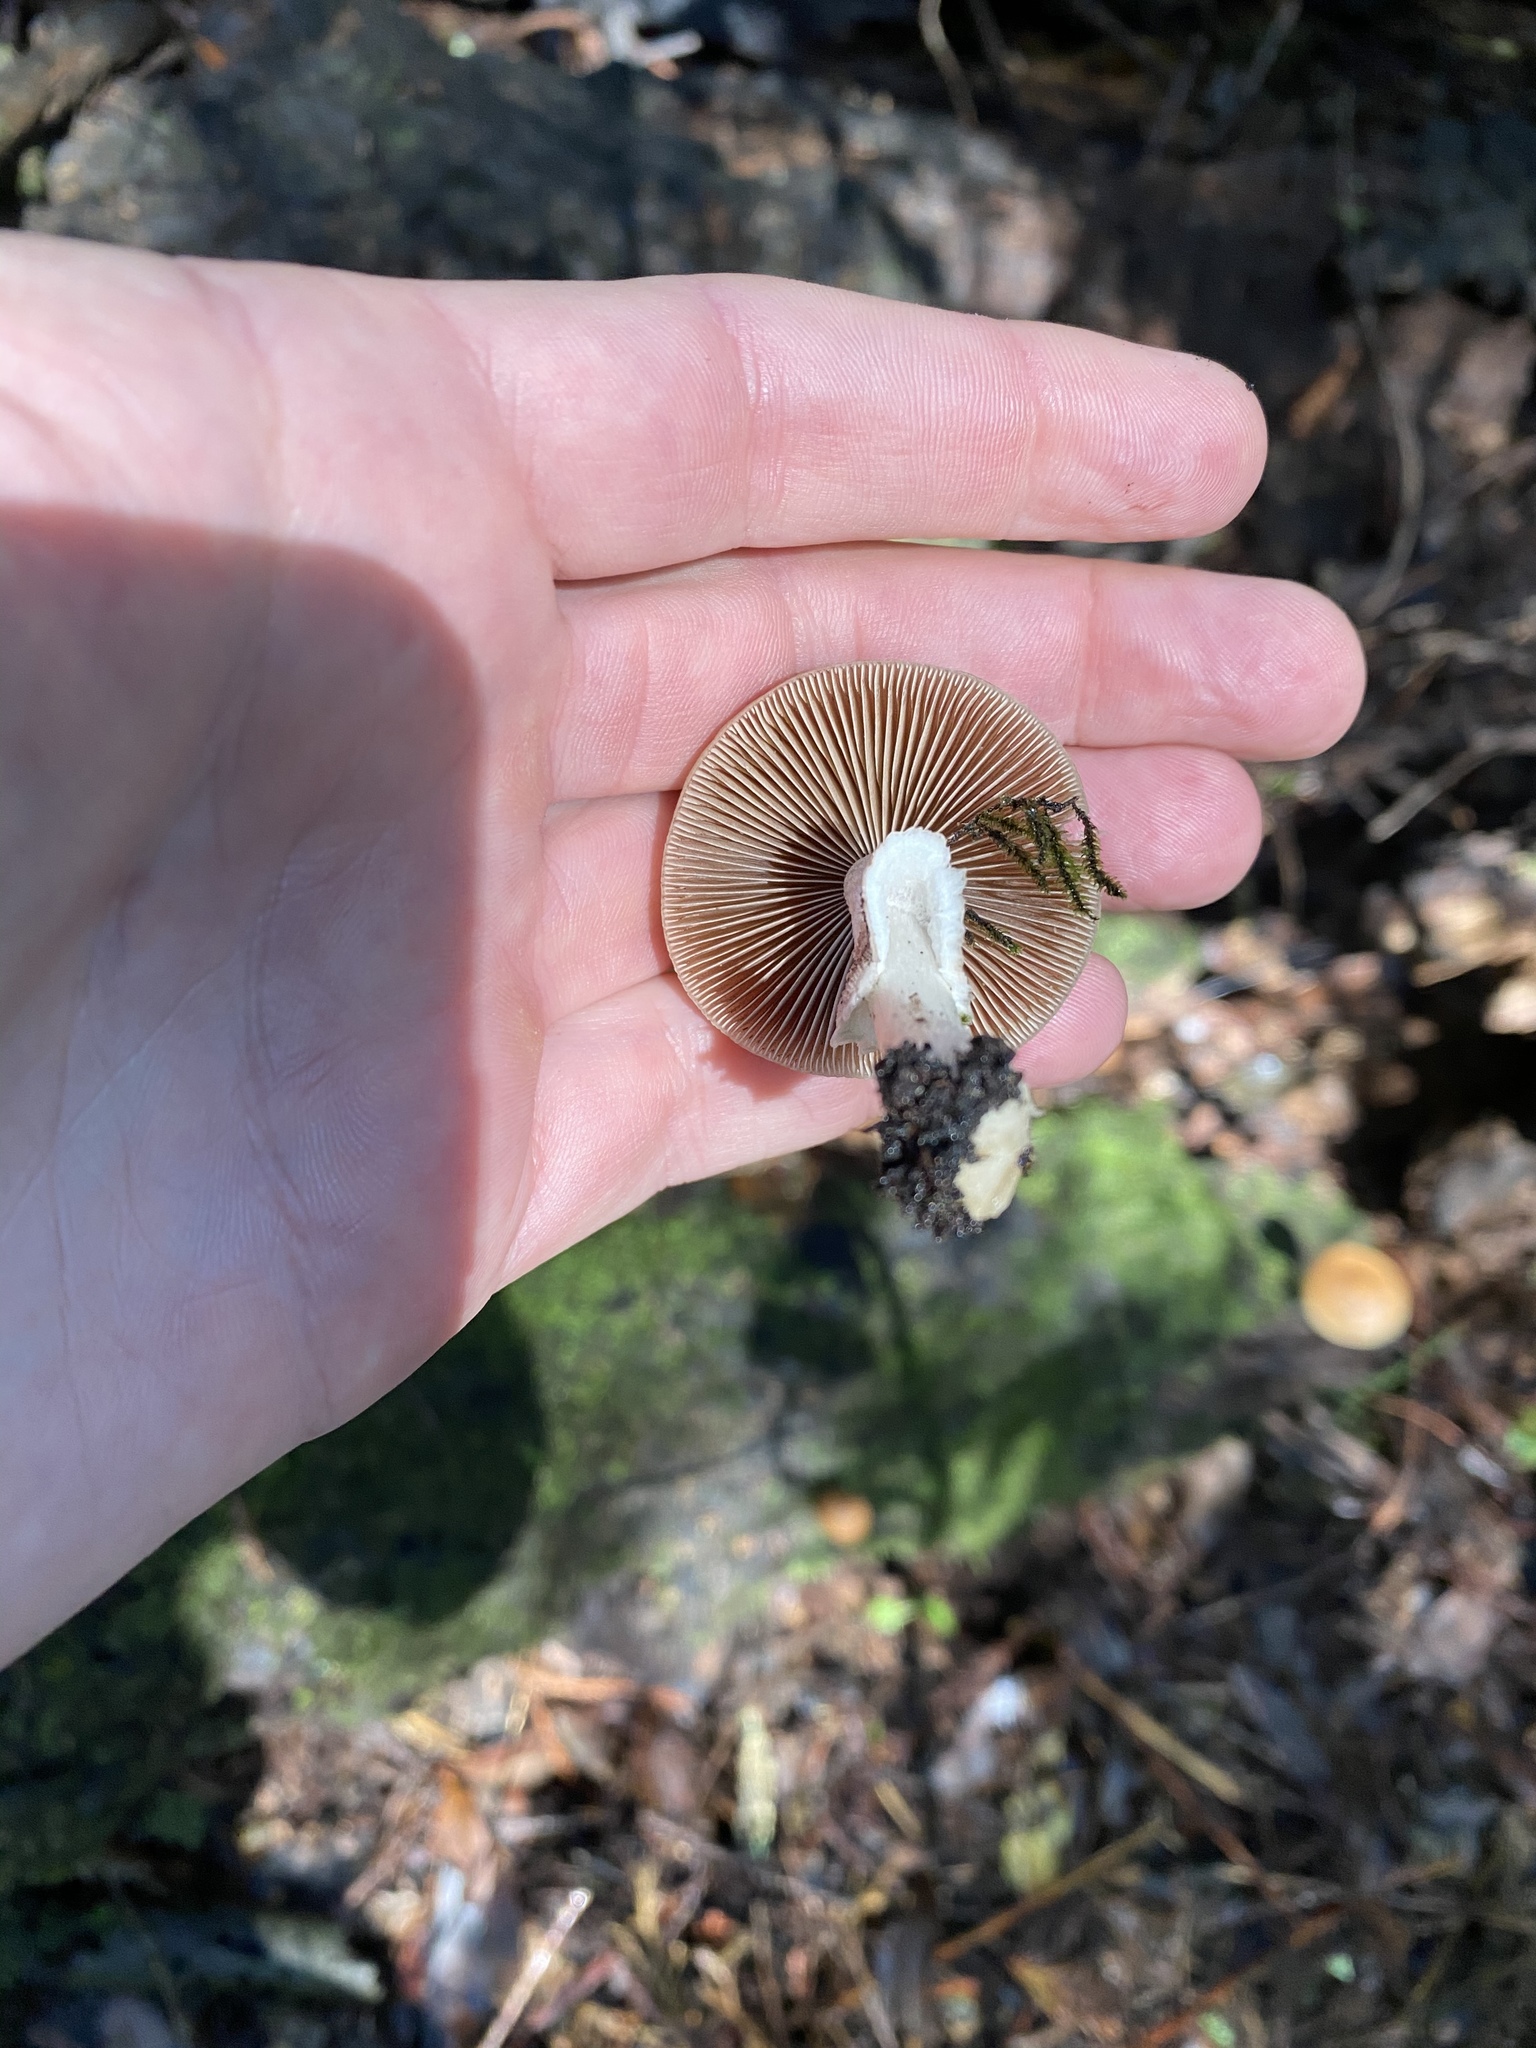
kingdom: Fungi
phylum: Basidiomycota
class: Agaricomycetes
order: Agaricales
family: Psathyrellaceae
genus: Psathyrella
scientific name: Psathyrella longistriata
